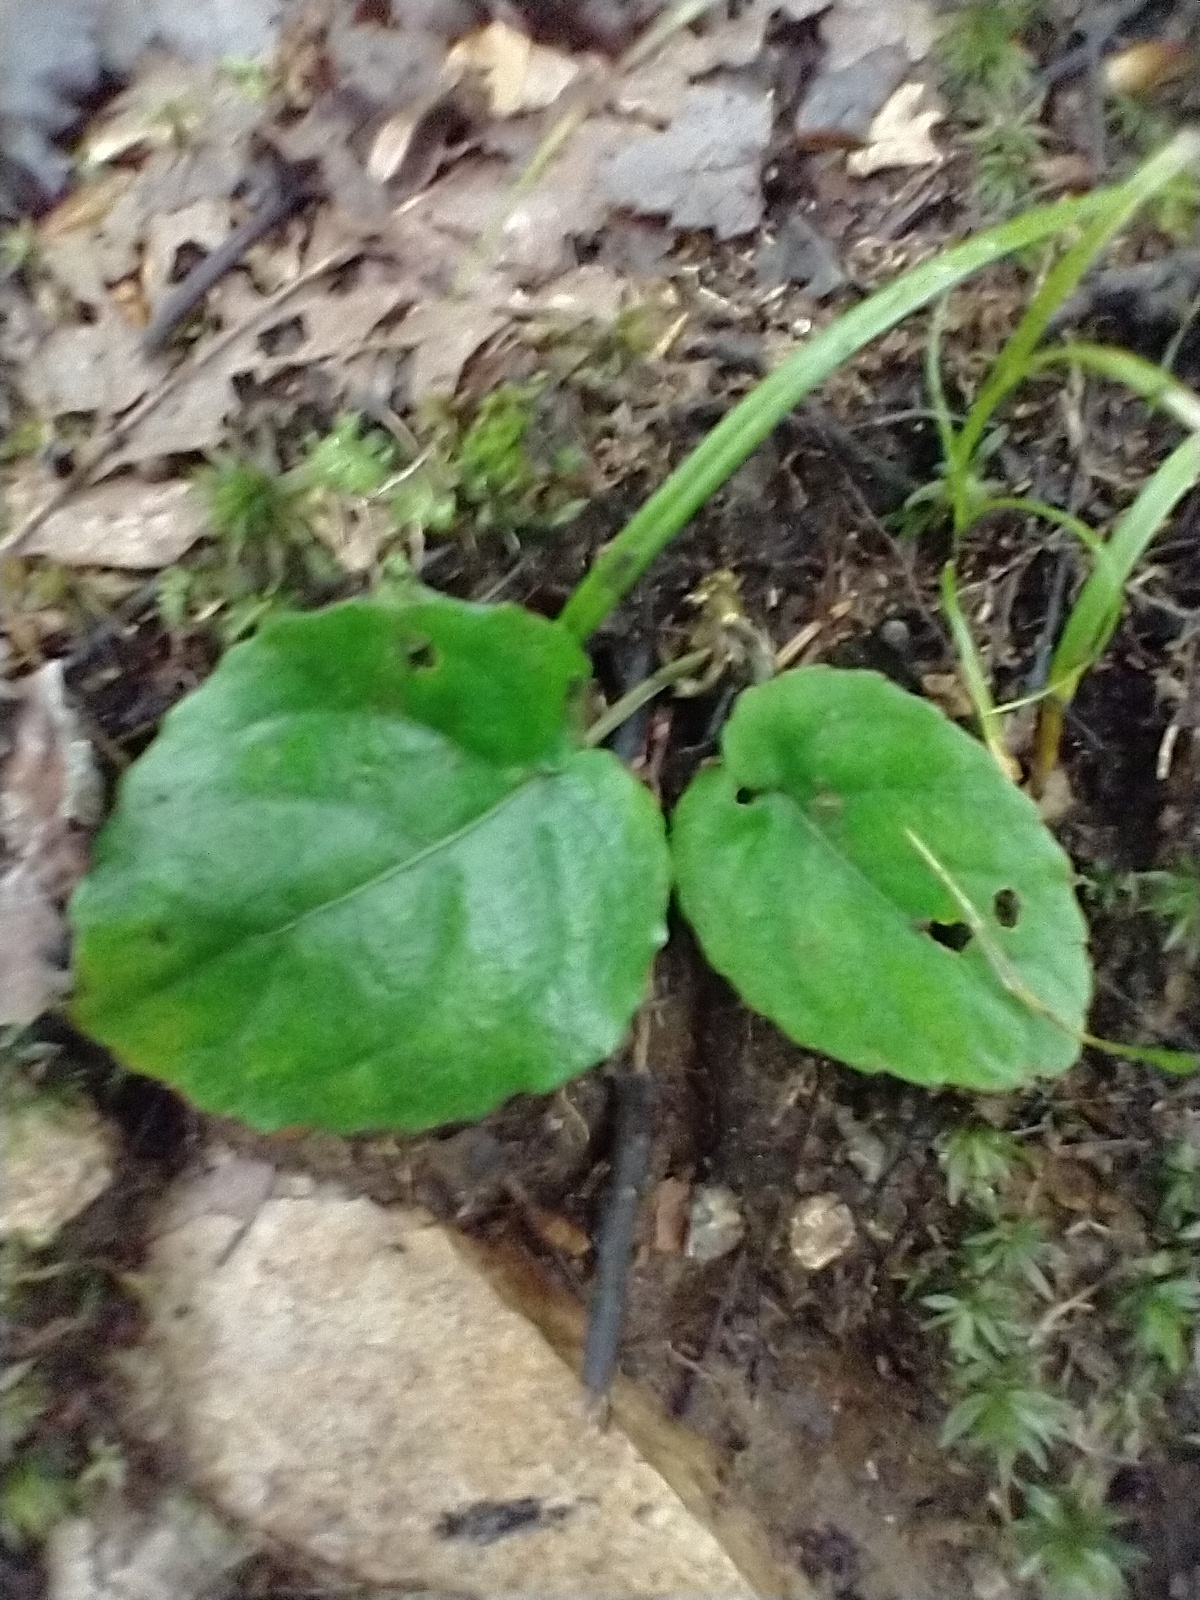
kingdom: Plantae
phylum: Tracheophyta
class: Magnoliopsida
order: Malpighiales
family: Violaceae
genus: Viola
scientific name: Viola rotundifolia
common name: Early yellow violet
